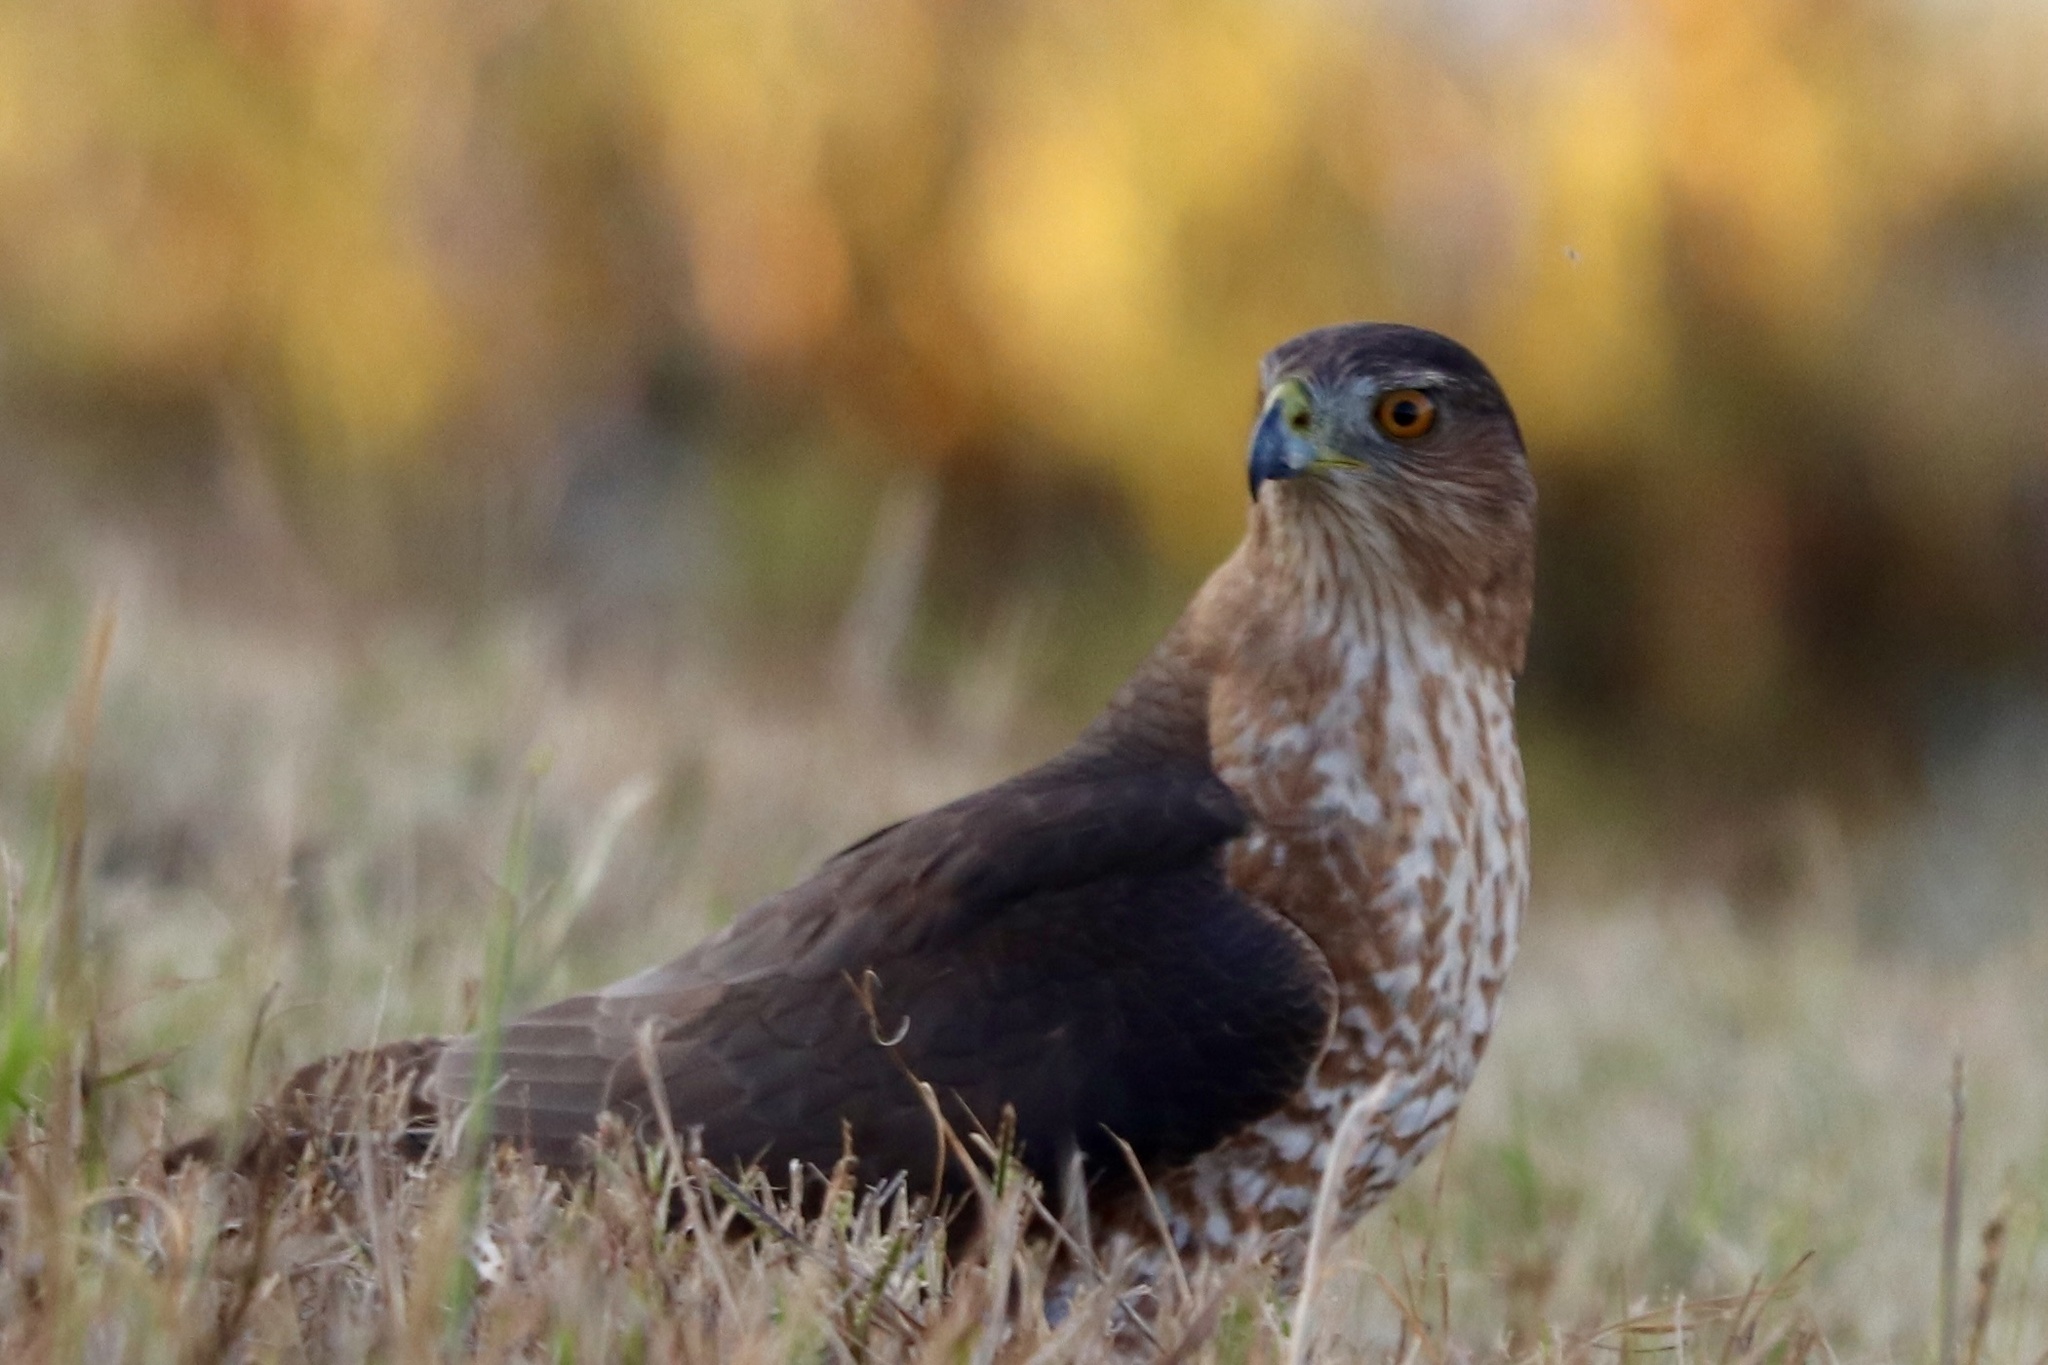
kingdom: Animalia
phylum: Chordata
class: Aves
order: Accipitriformes
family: Accipitridae
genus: Accipiter
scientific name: Accipiter cooperii
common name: Cooper's hawk
